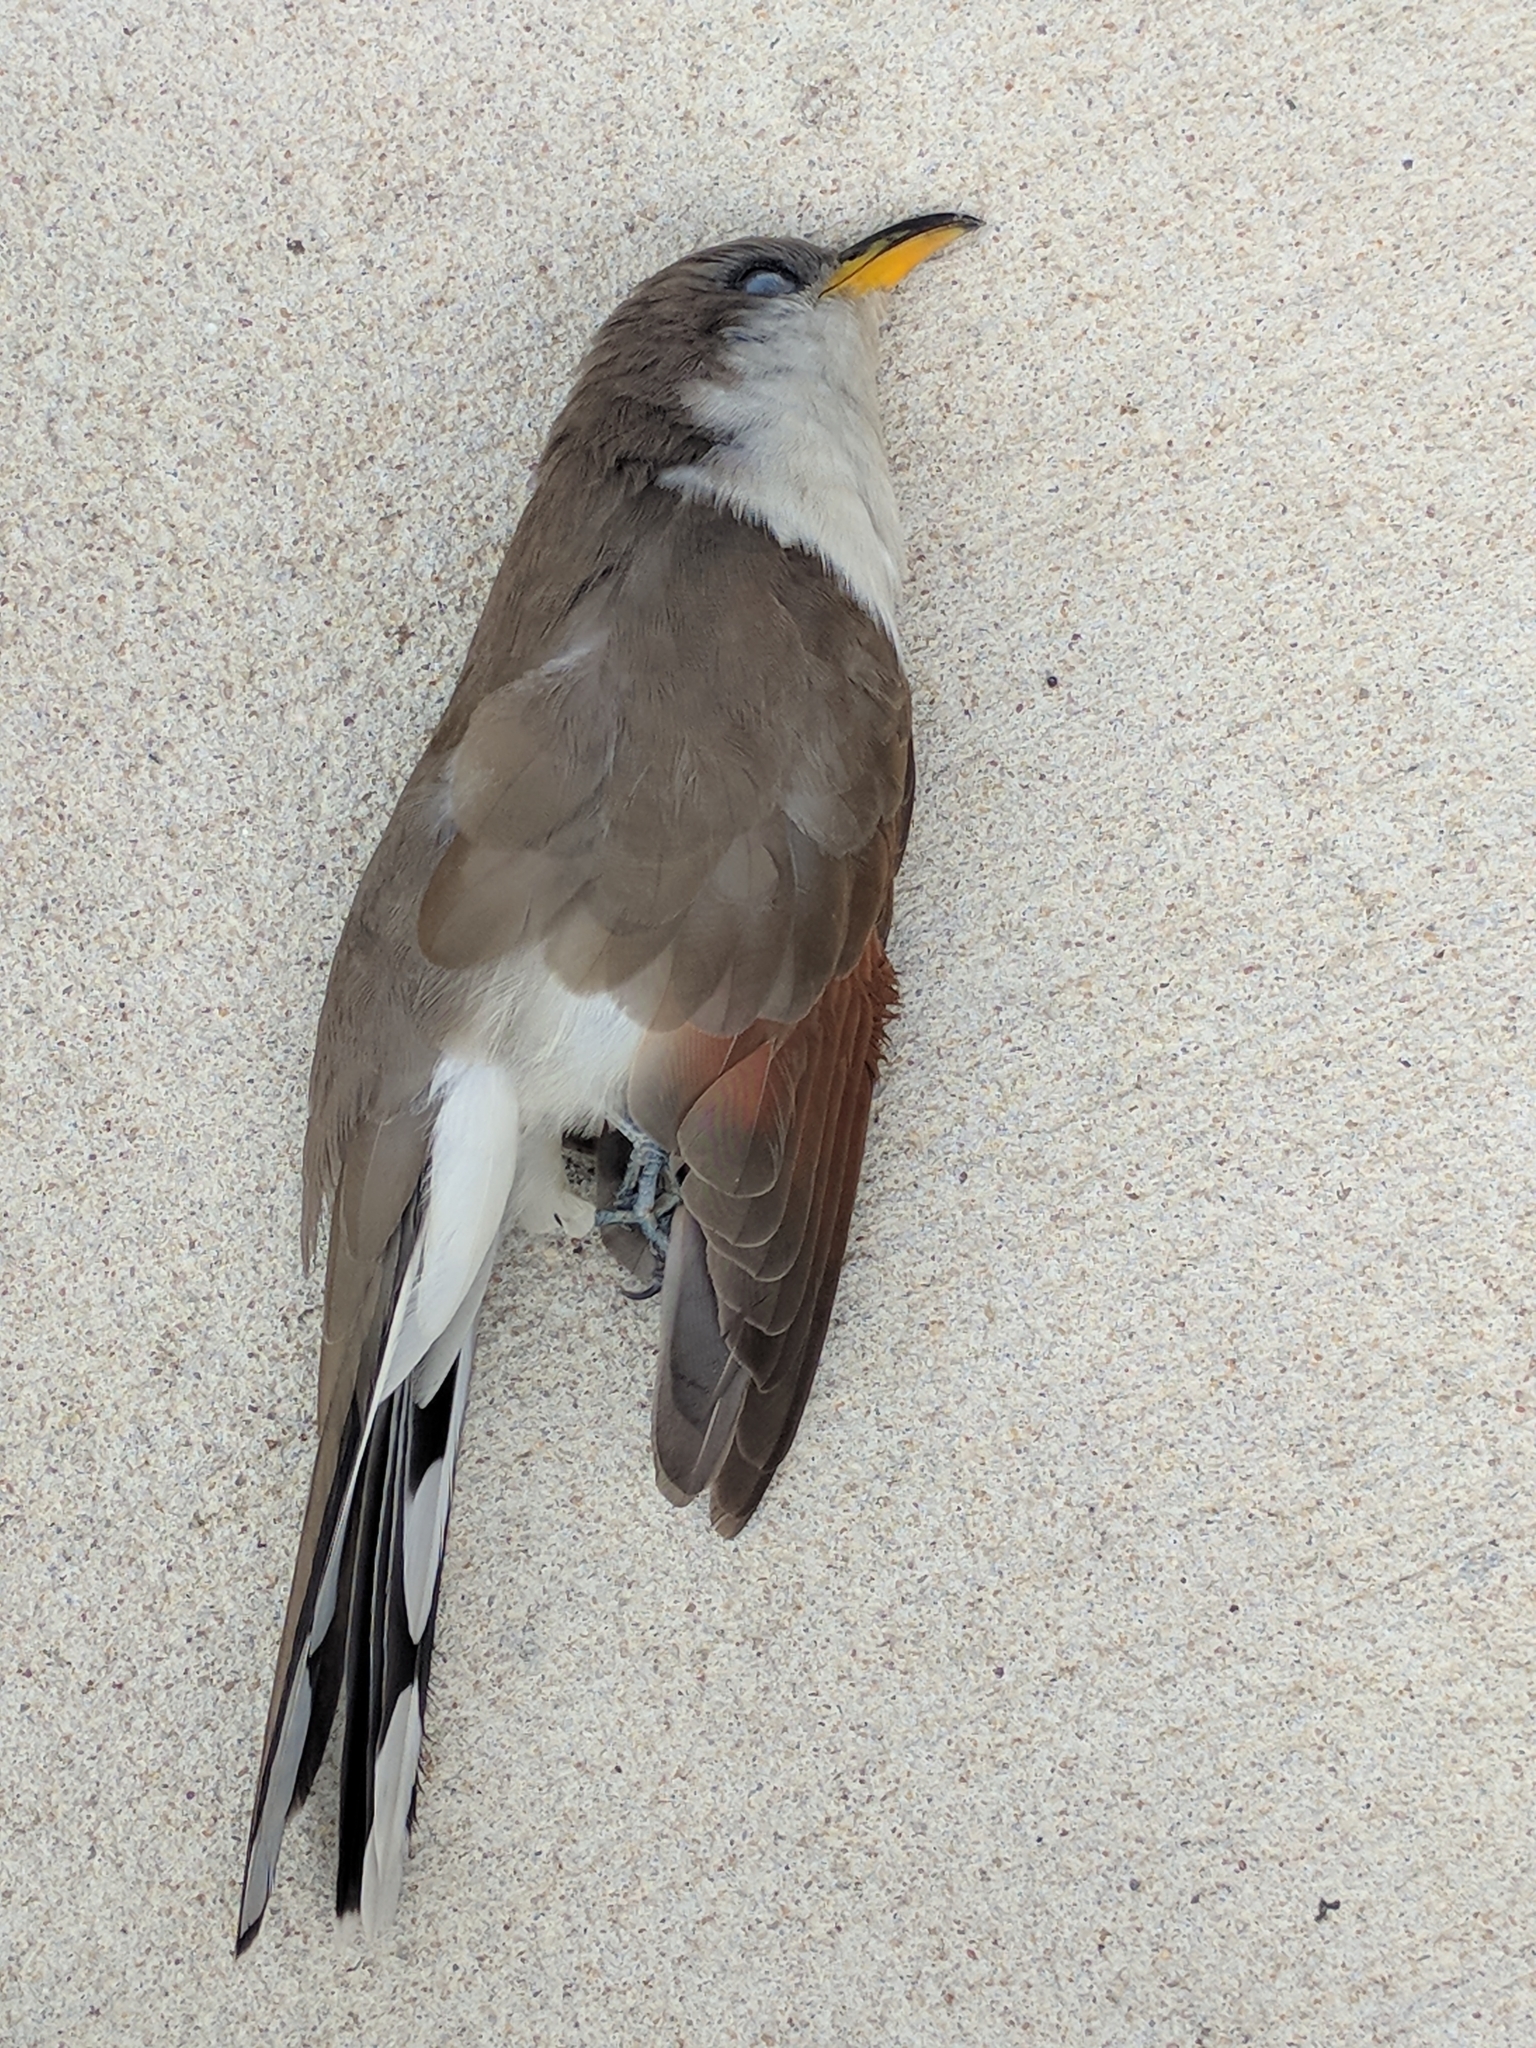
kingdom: Animalia
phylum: Chordata
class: Aves
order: Cuculiformes
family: Cuculidae
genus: Coccyzus
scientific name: Coccyzus americanus
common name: Yellow-billed cuckoo
